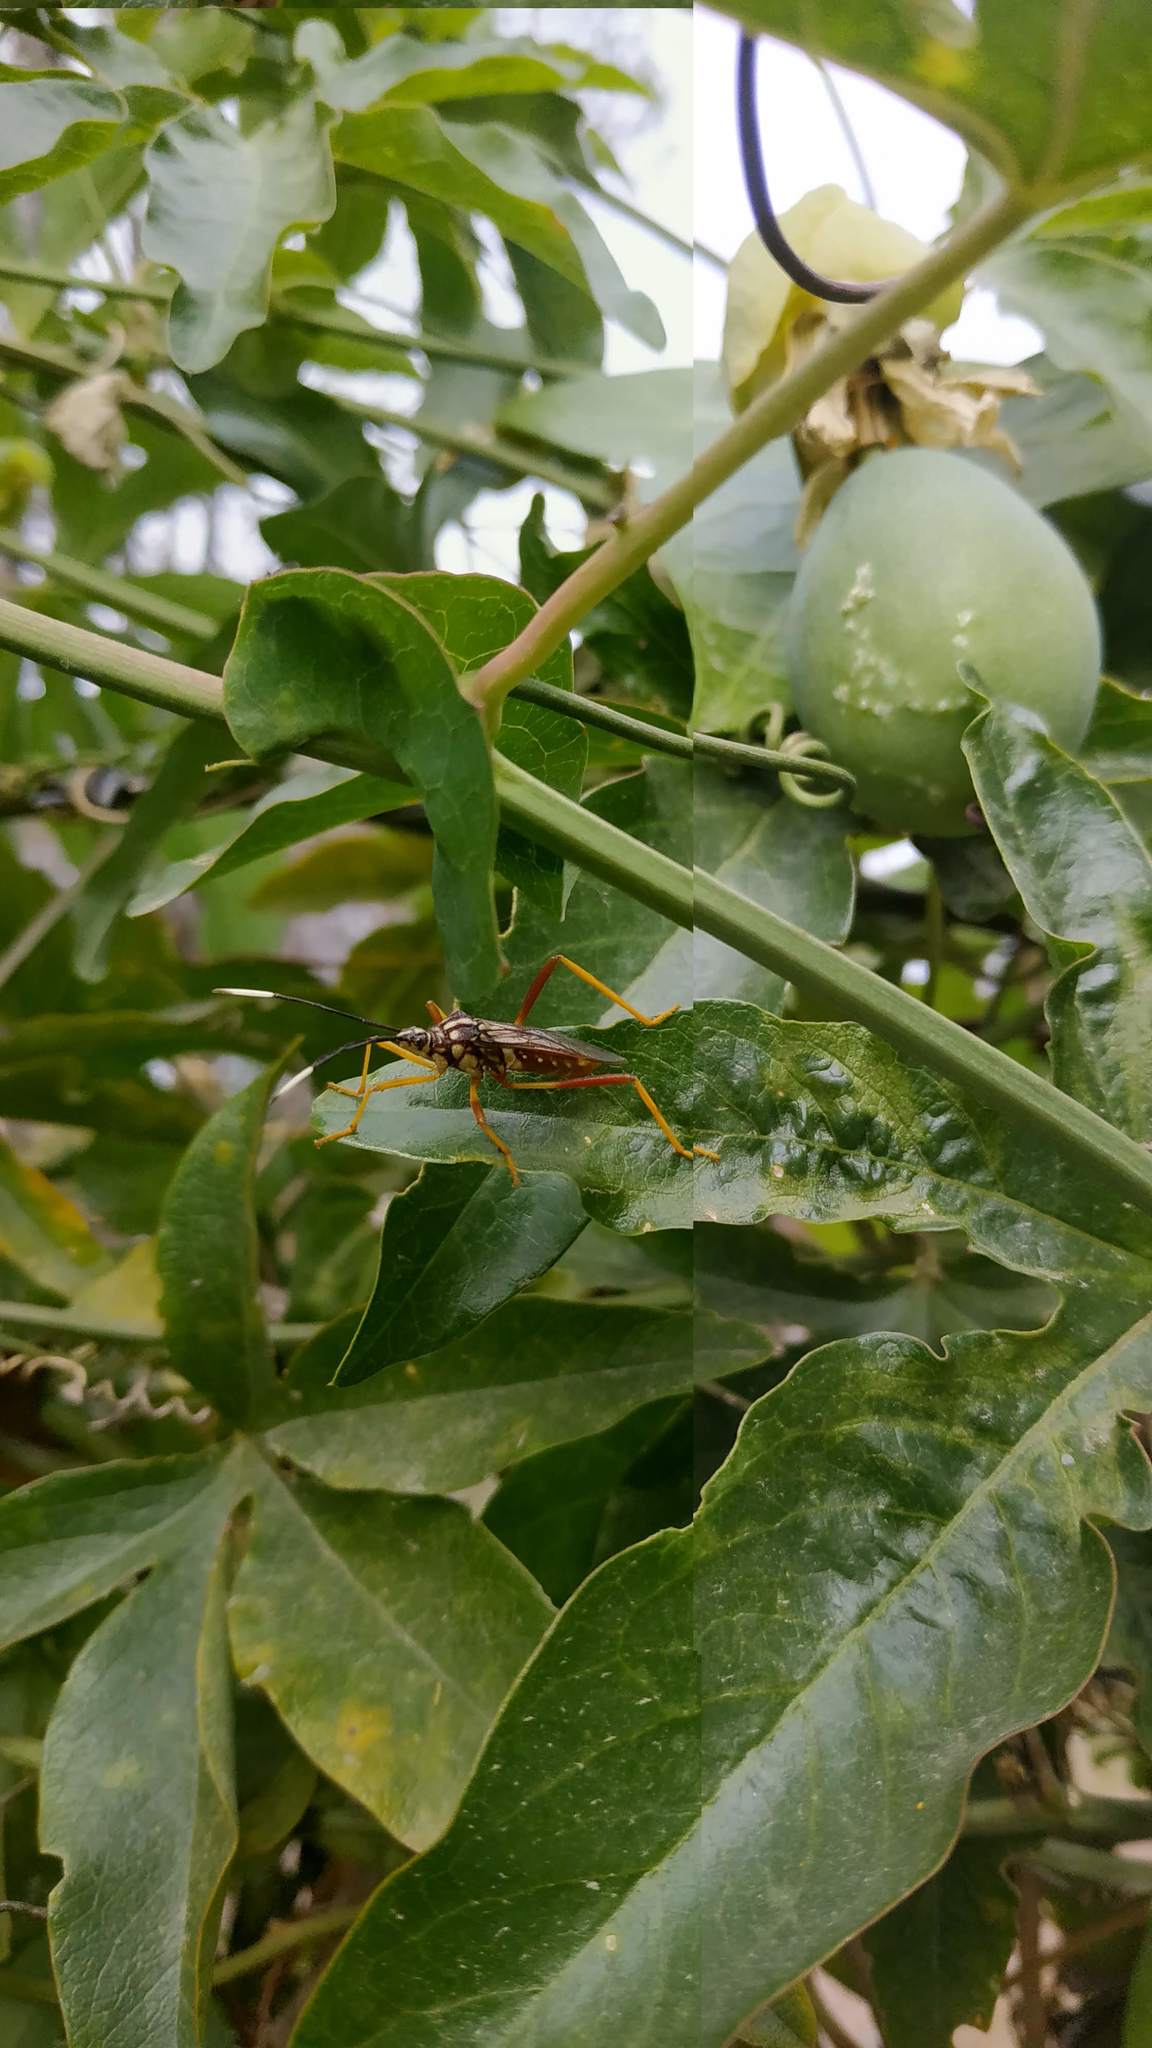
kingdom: Animalia
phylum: Arthropoda
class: Insecta
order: Hemiptera
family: Coreidae
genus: Holhymenia
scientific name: Holhymenia histrio
